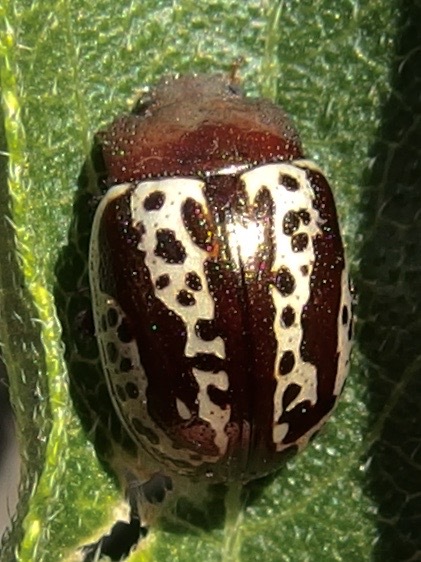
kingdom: Animalia
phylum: Arthropoda
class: Insecta
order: Coleoptera
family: Chrysomelidae
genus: Calligrapha
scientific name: Calligrapha
